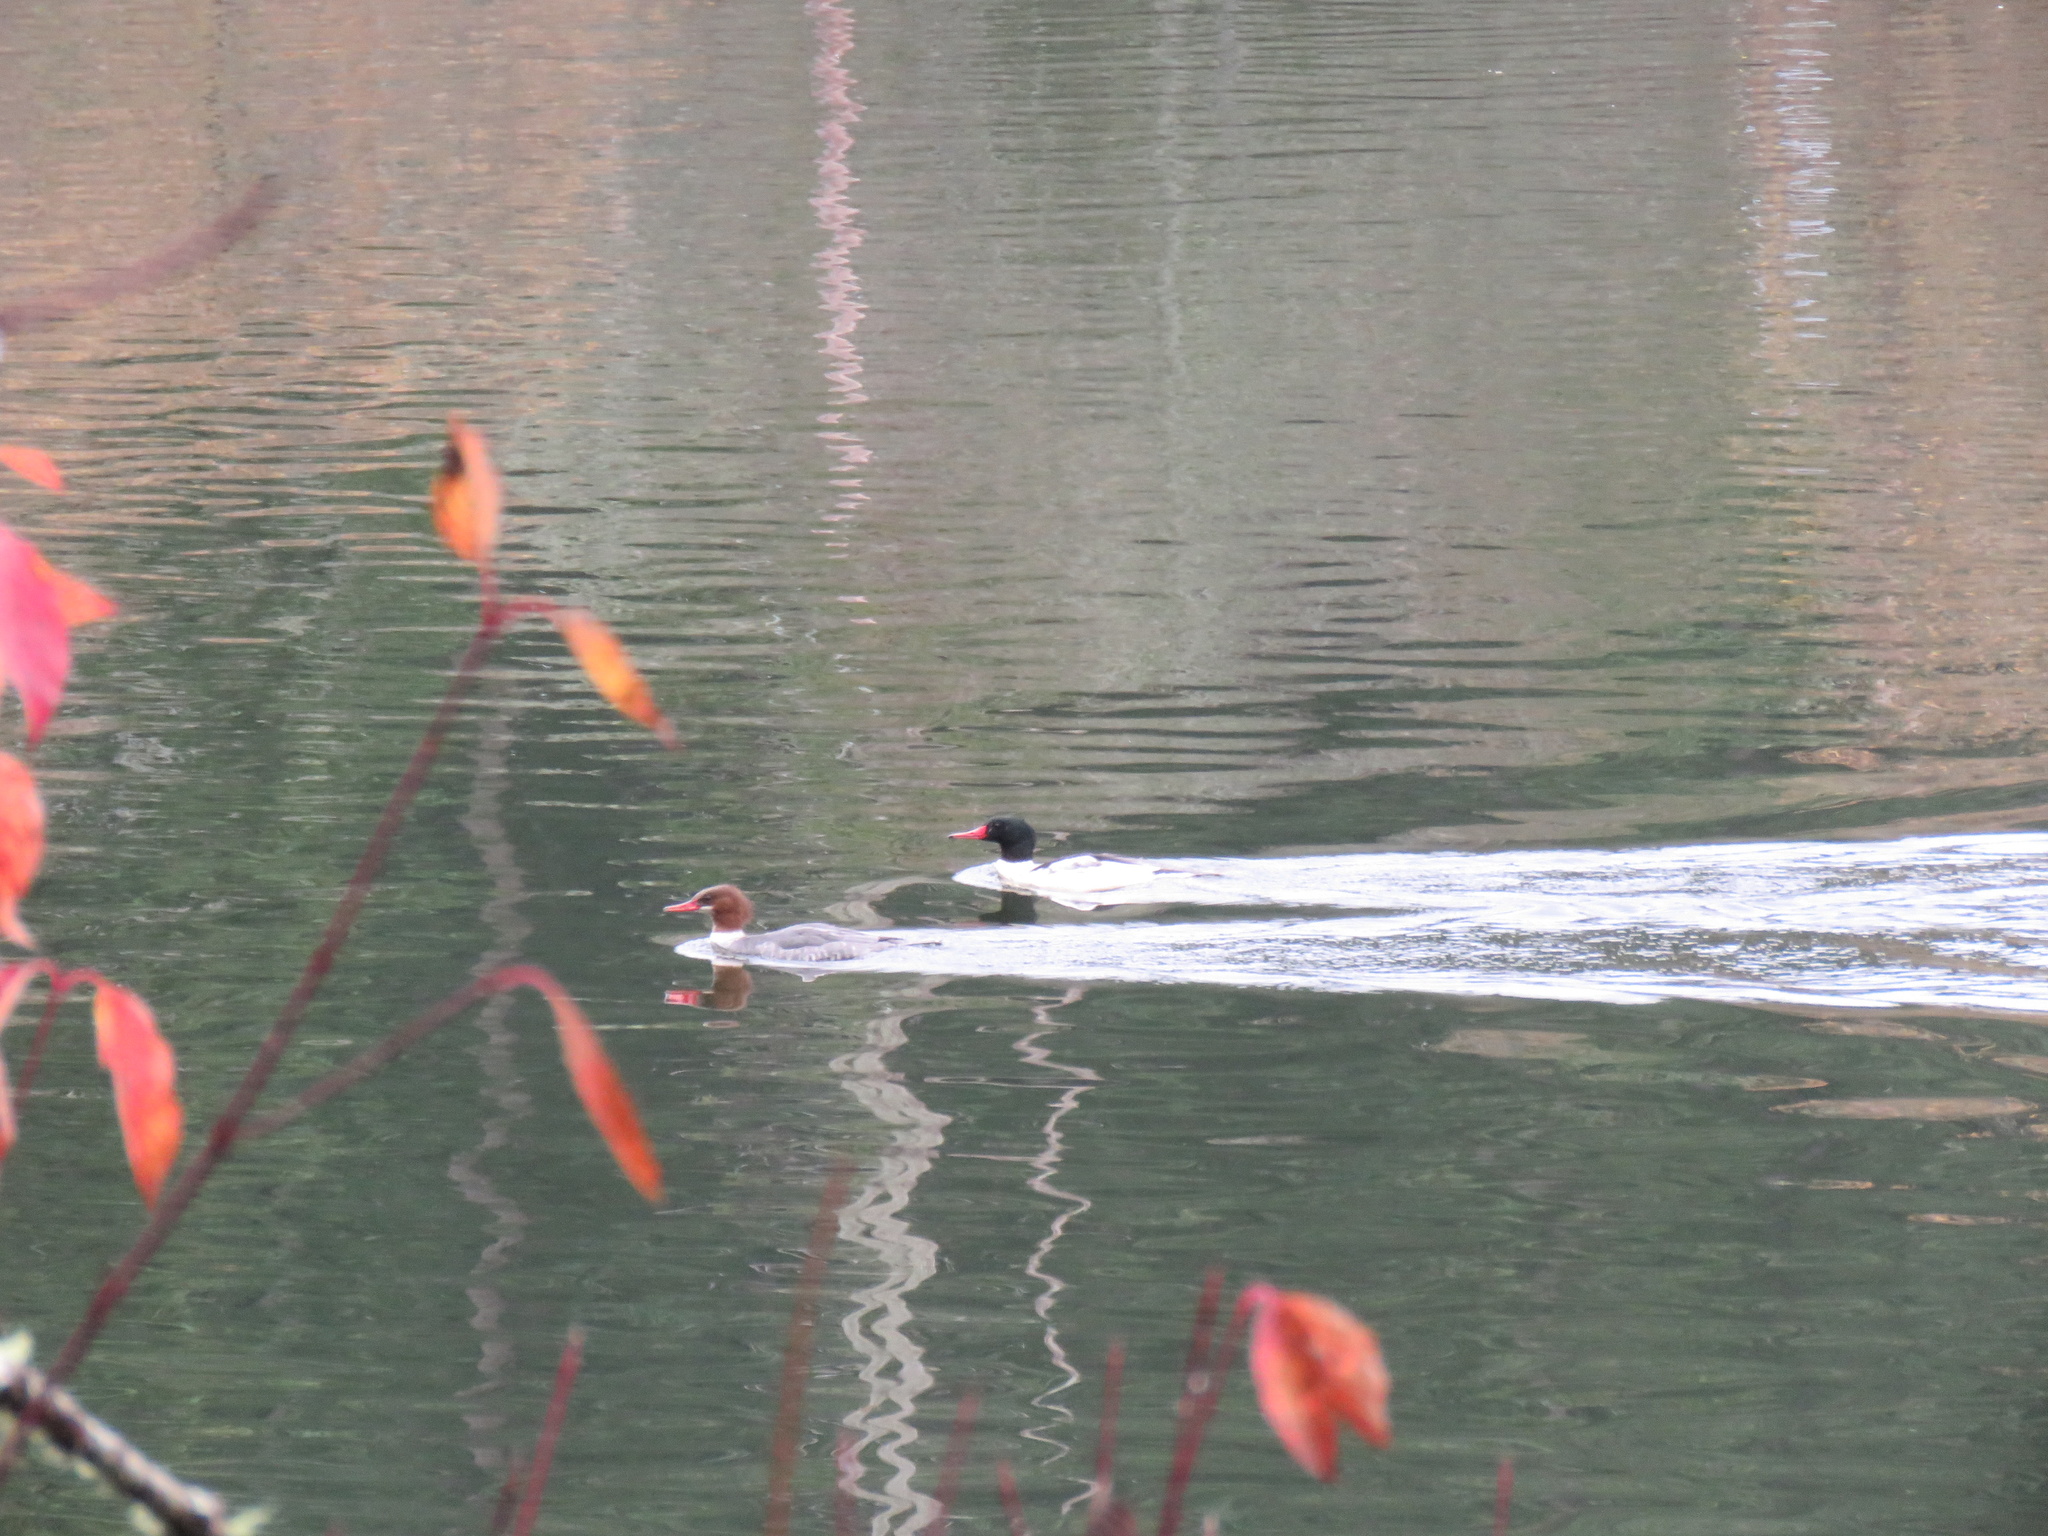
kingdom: Animalia
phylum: Chordata
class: Aves
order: Anseriformes
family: Anatidae
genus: Mergus
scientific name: Mergus merganser
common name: Common merganser
